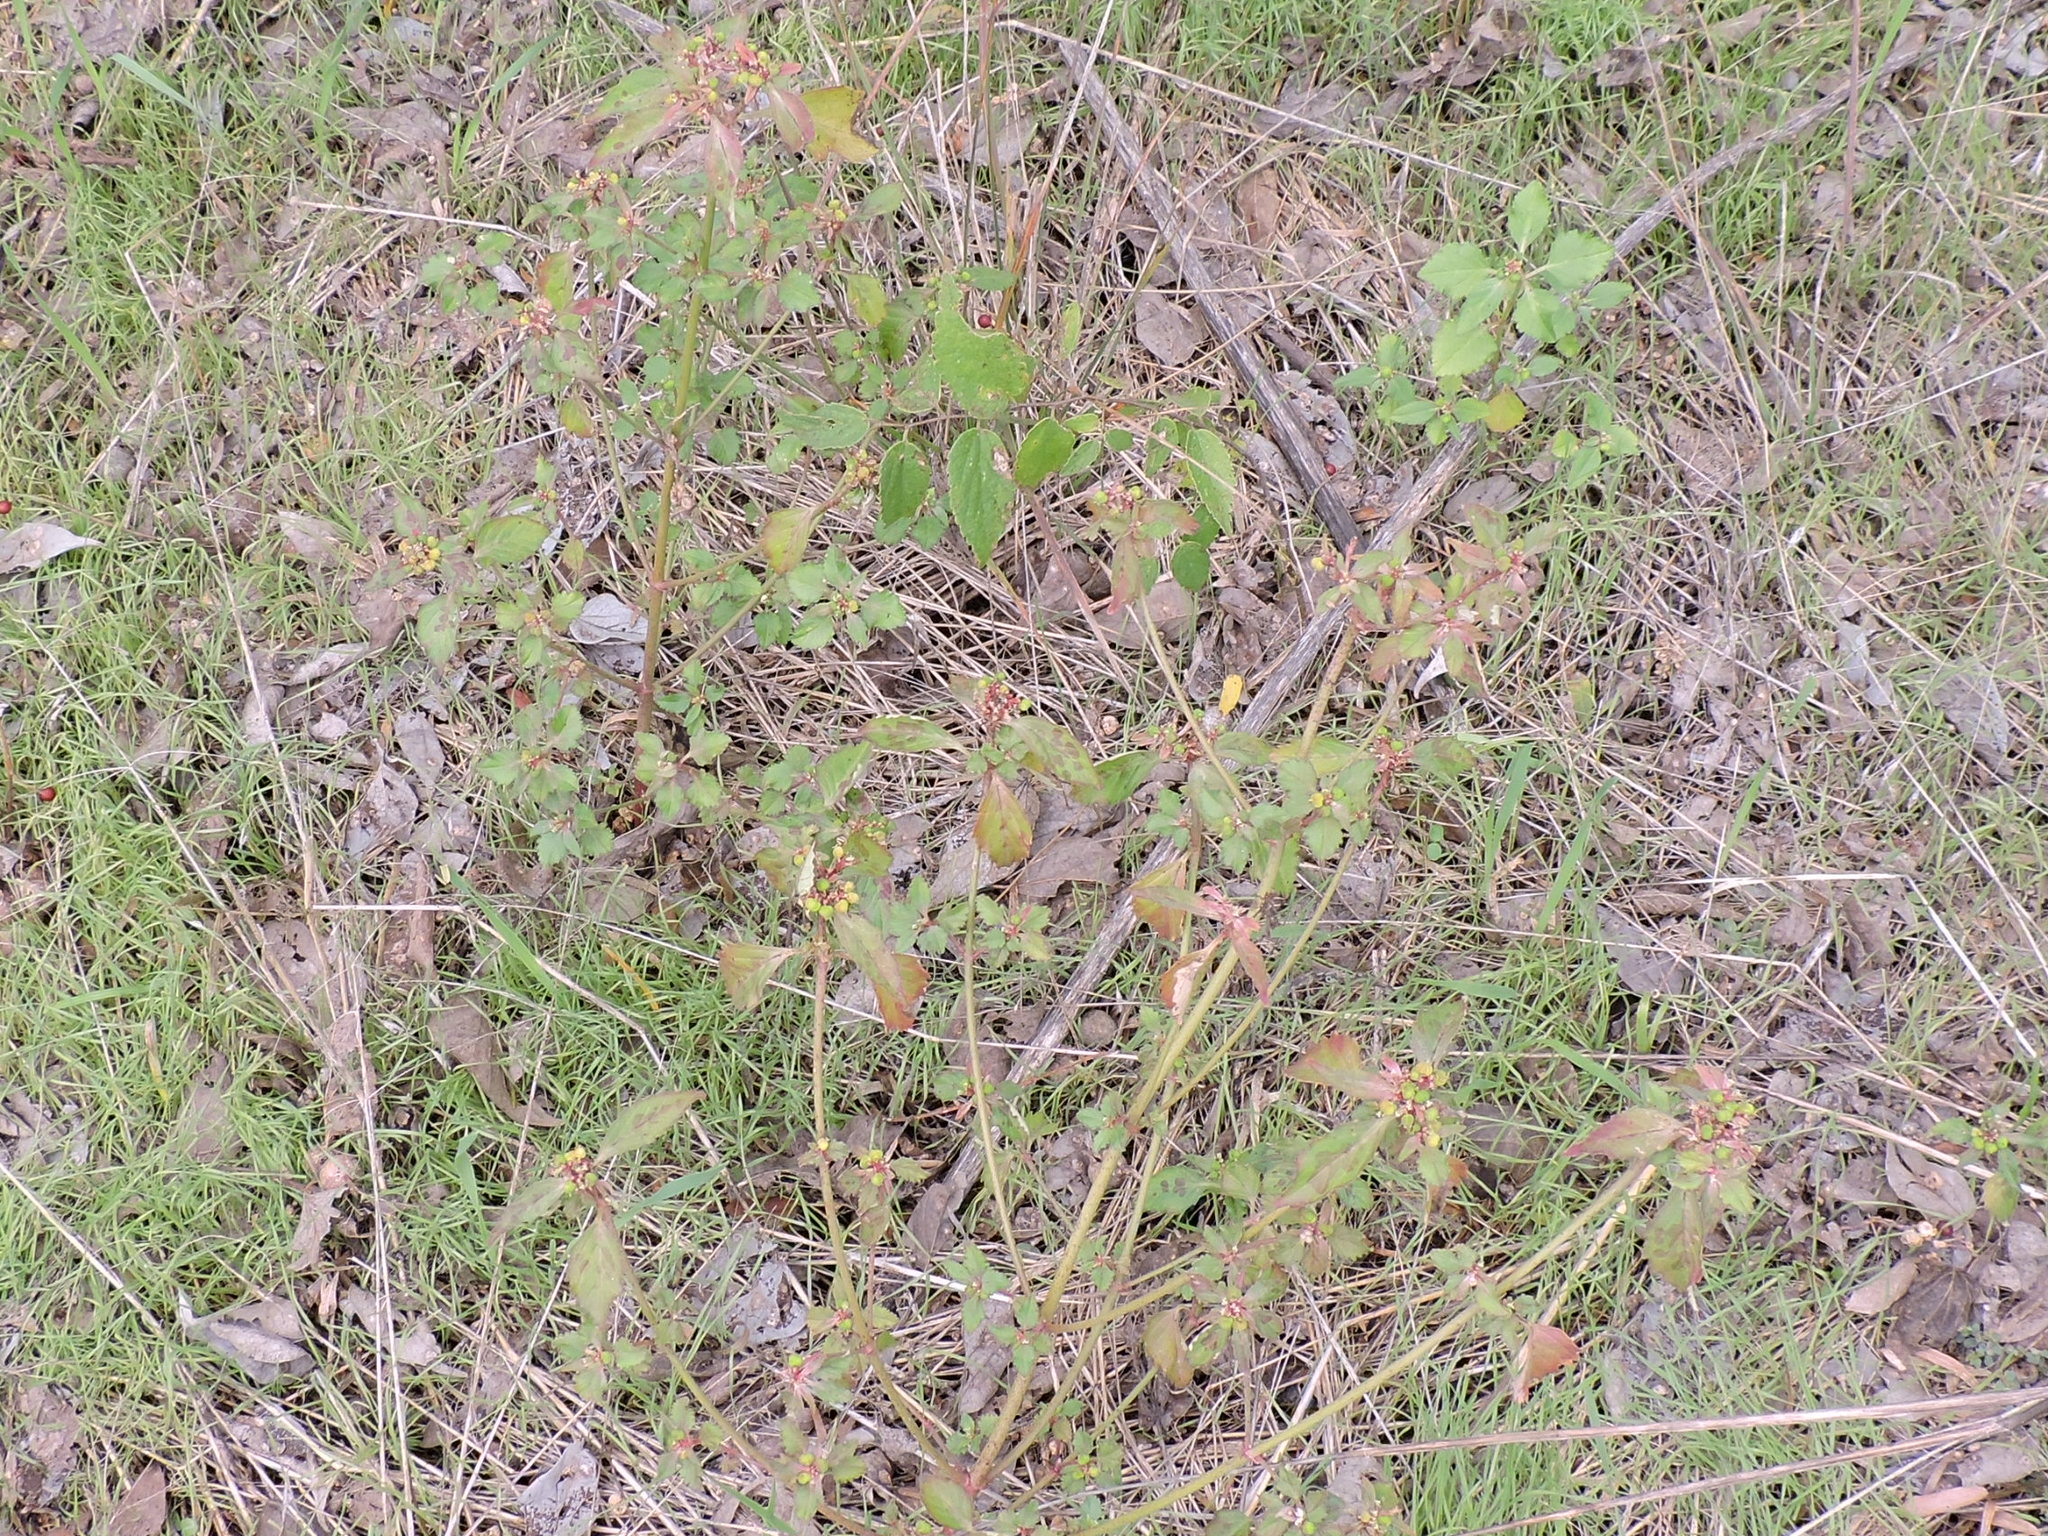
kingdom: Plantae
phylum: Tracheophyta
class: Magnoliopsida
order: Malpighiales
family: Euphorbiaceae
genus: Euphorbia
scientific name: Euphorbia dentata
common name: Dentate spurge
